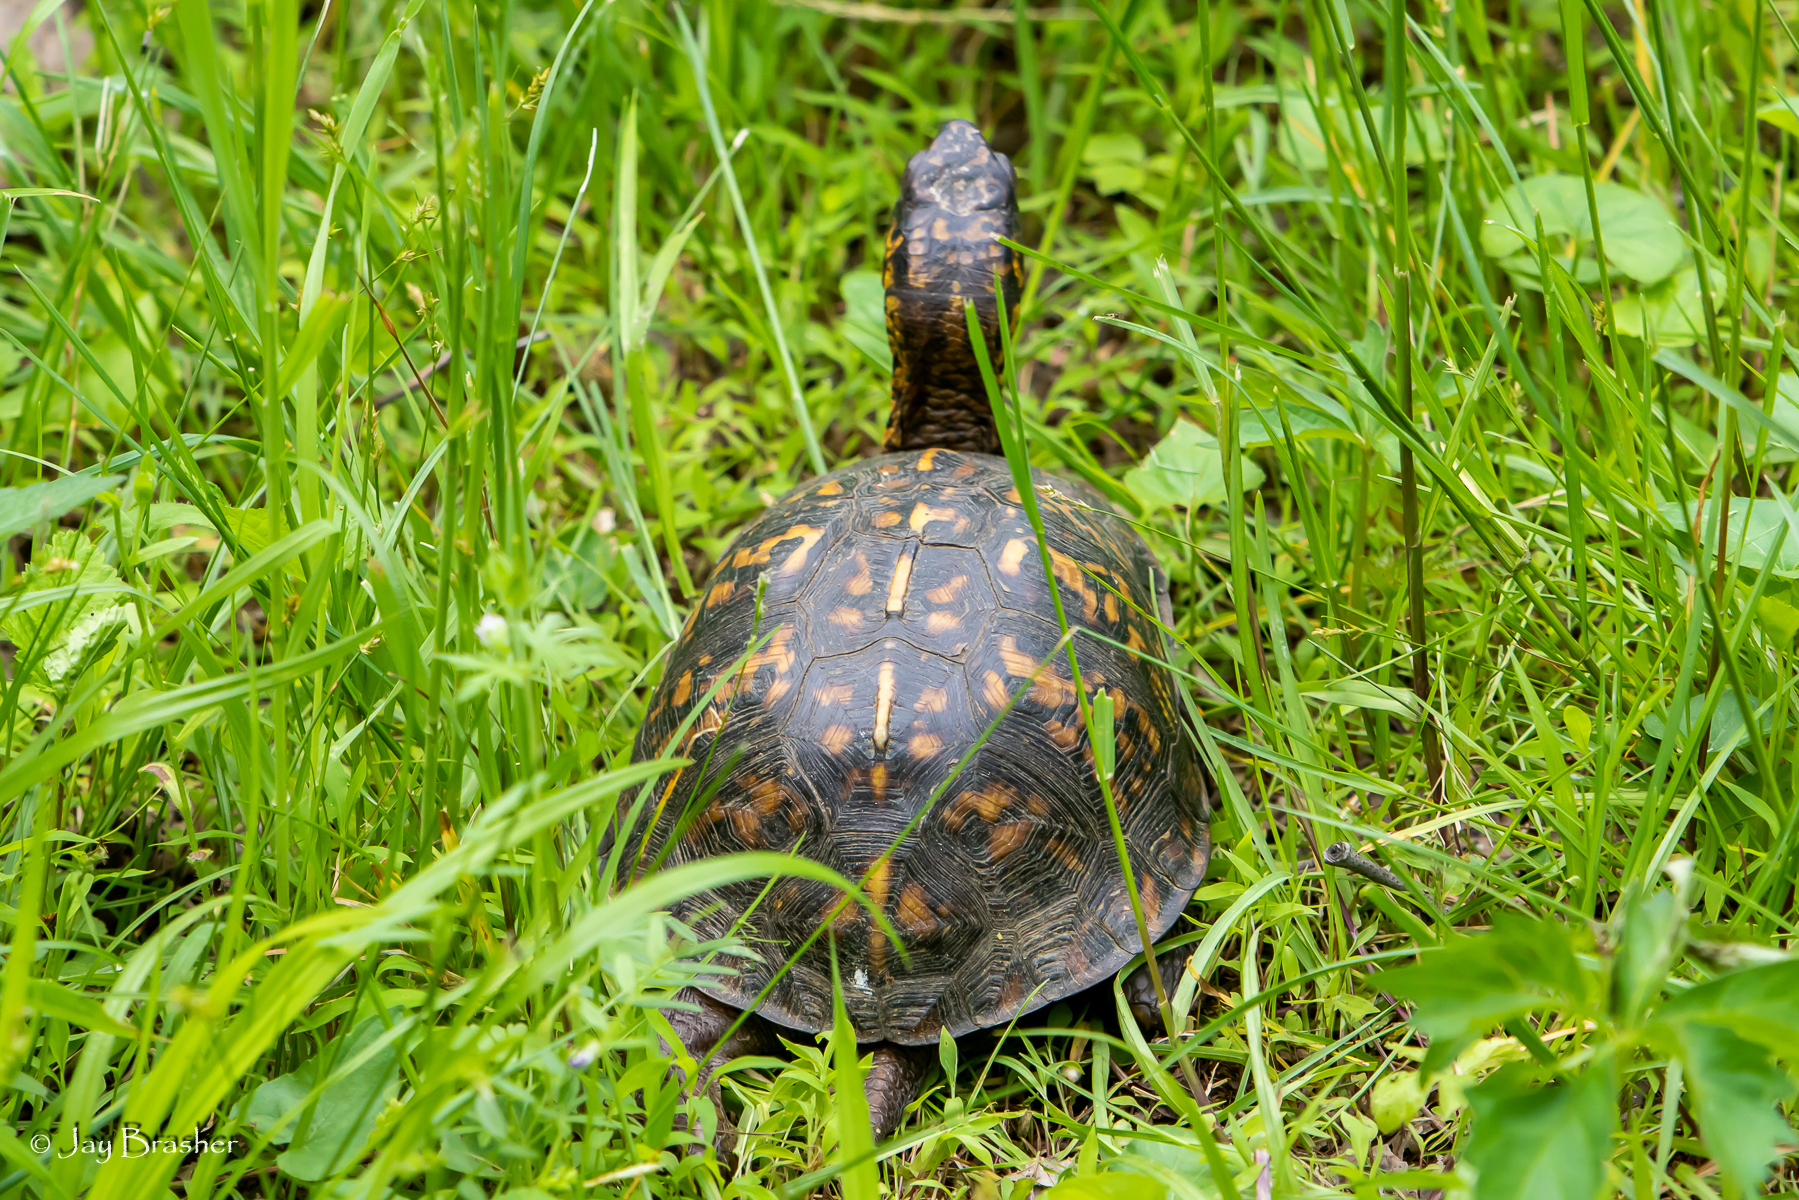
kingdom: Animalia
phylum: Chordata
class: Testudines
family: Emydidae
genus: Terrapene
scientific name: Terrapene carolina
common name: Common box turtle
